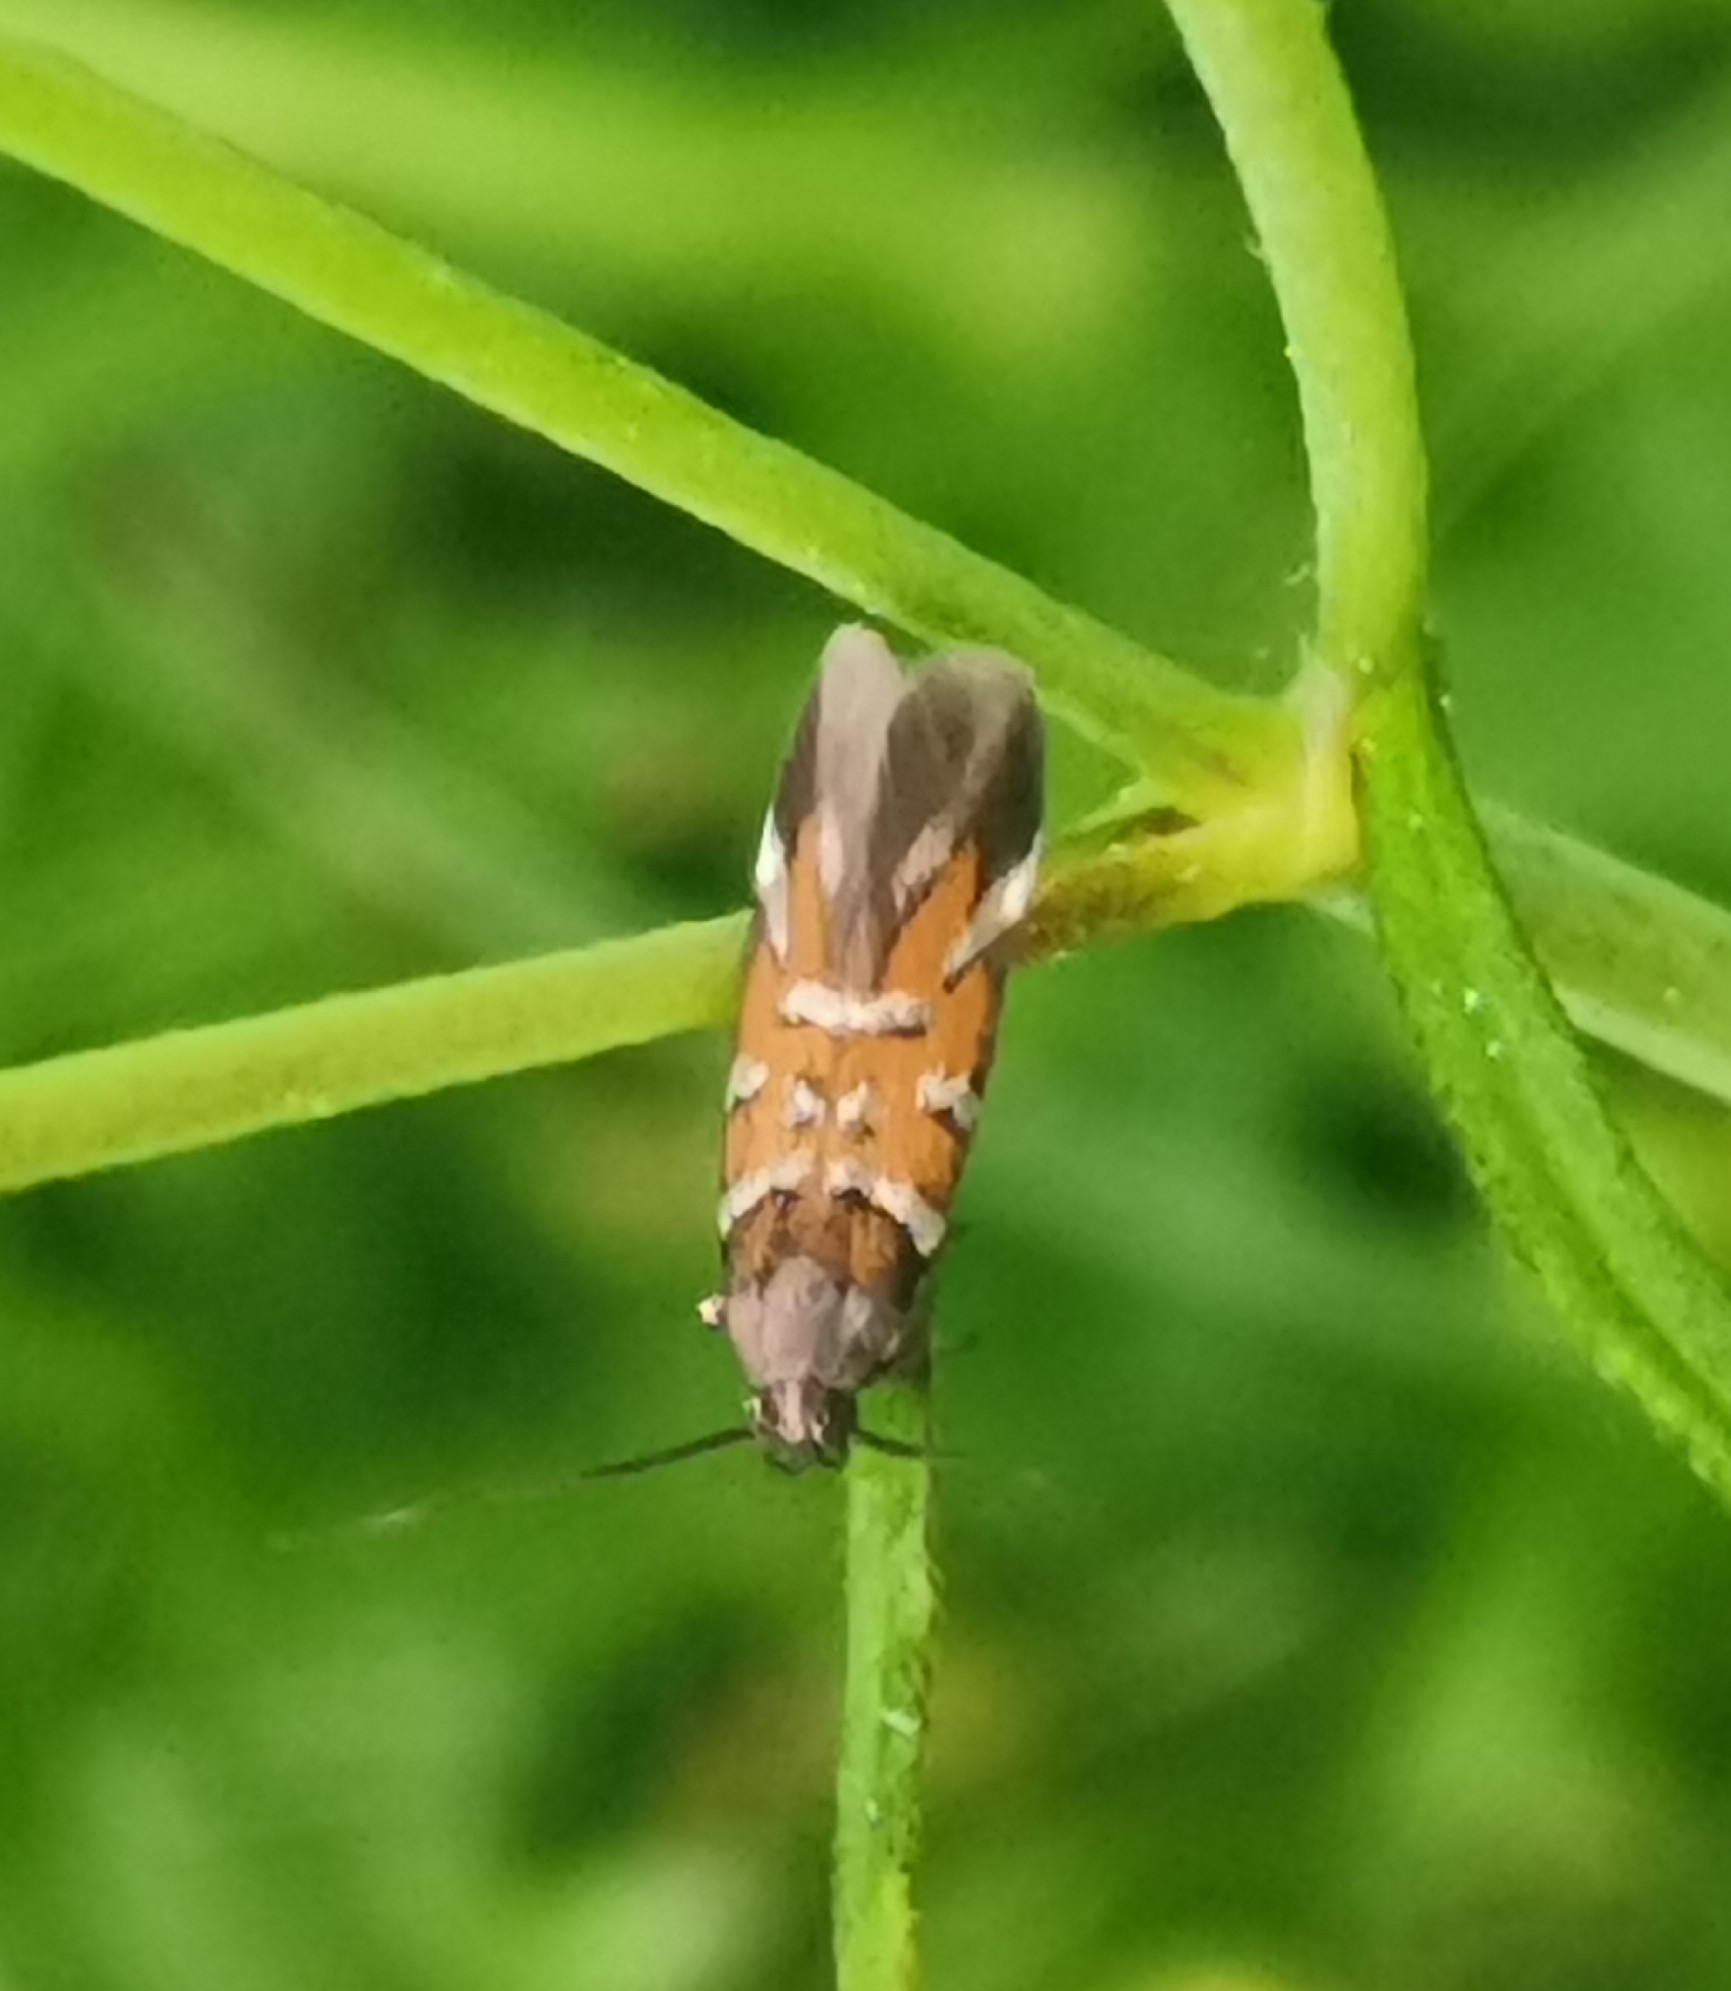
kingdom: Animalia
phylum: Arthropoda
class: Insecta
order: Lepidoptera
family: Cosmopterigidae
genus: Pancalia
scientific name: Pancalia schwarzella
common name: Scarce violet cosmet
